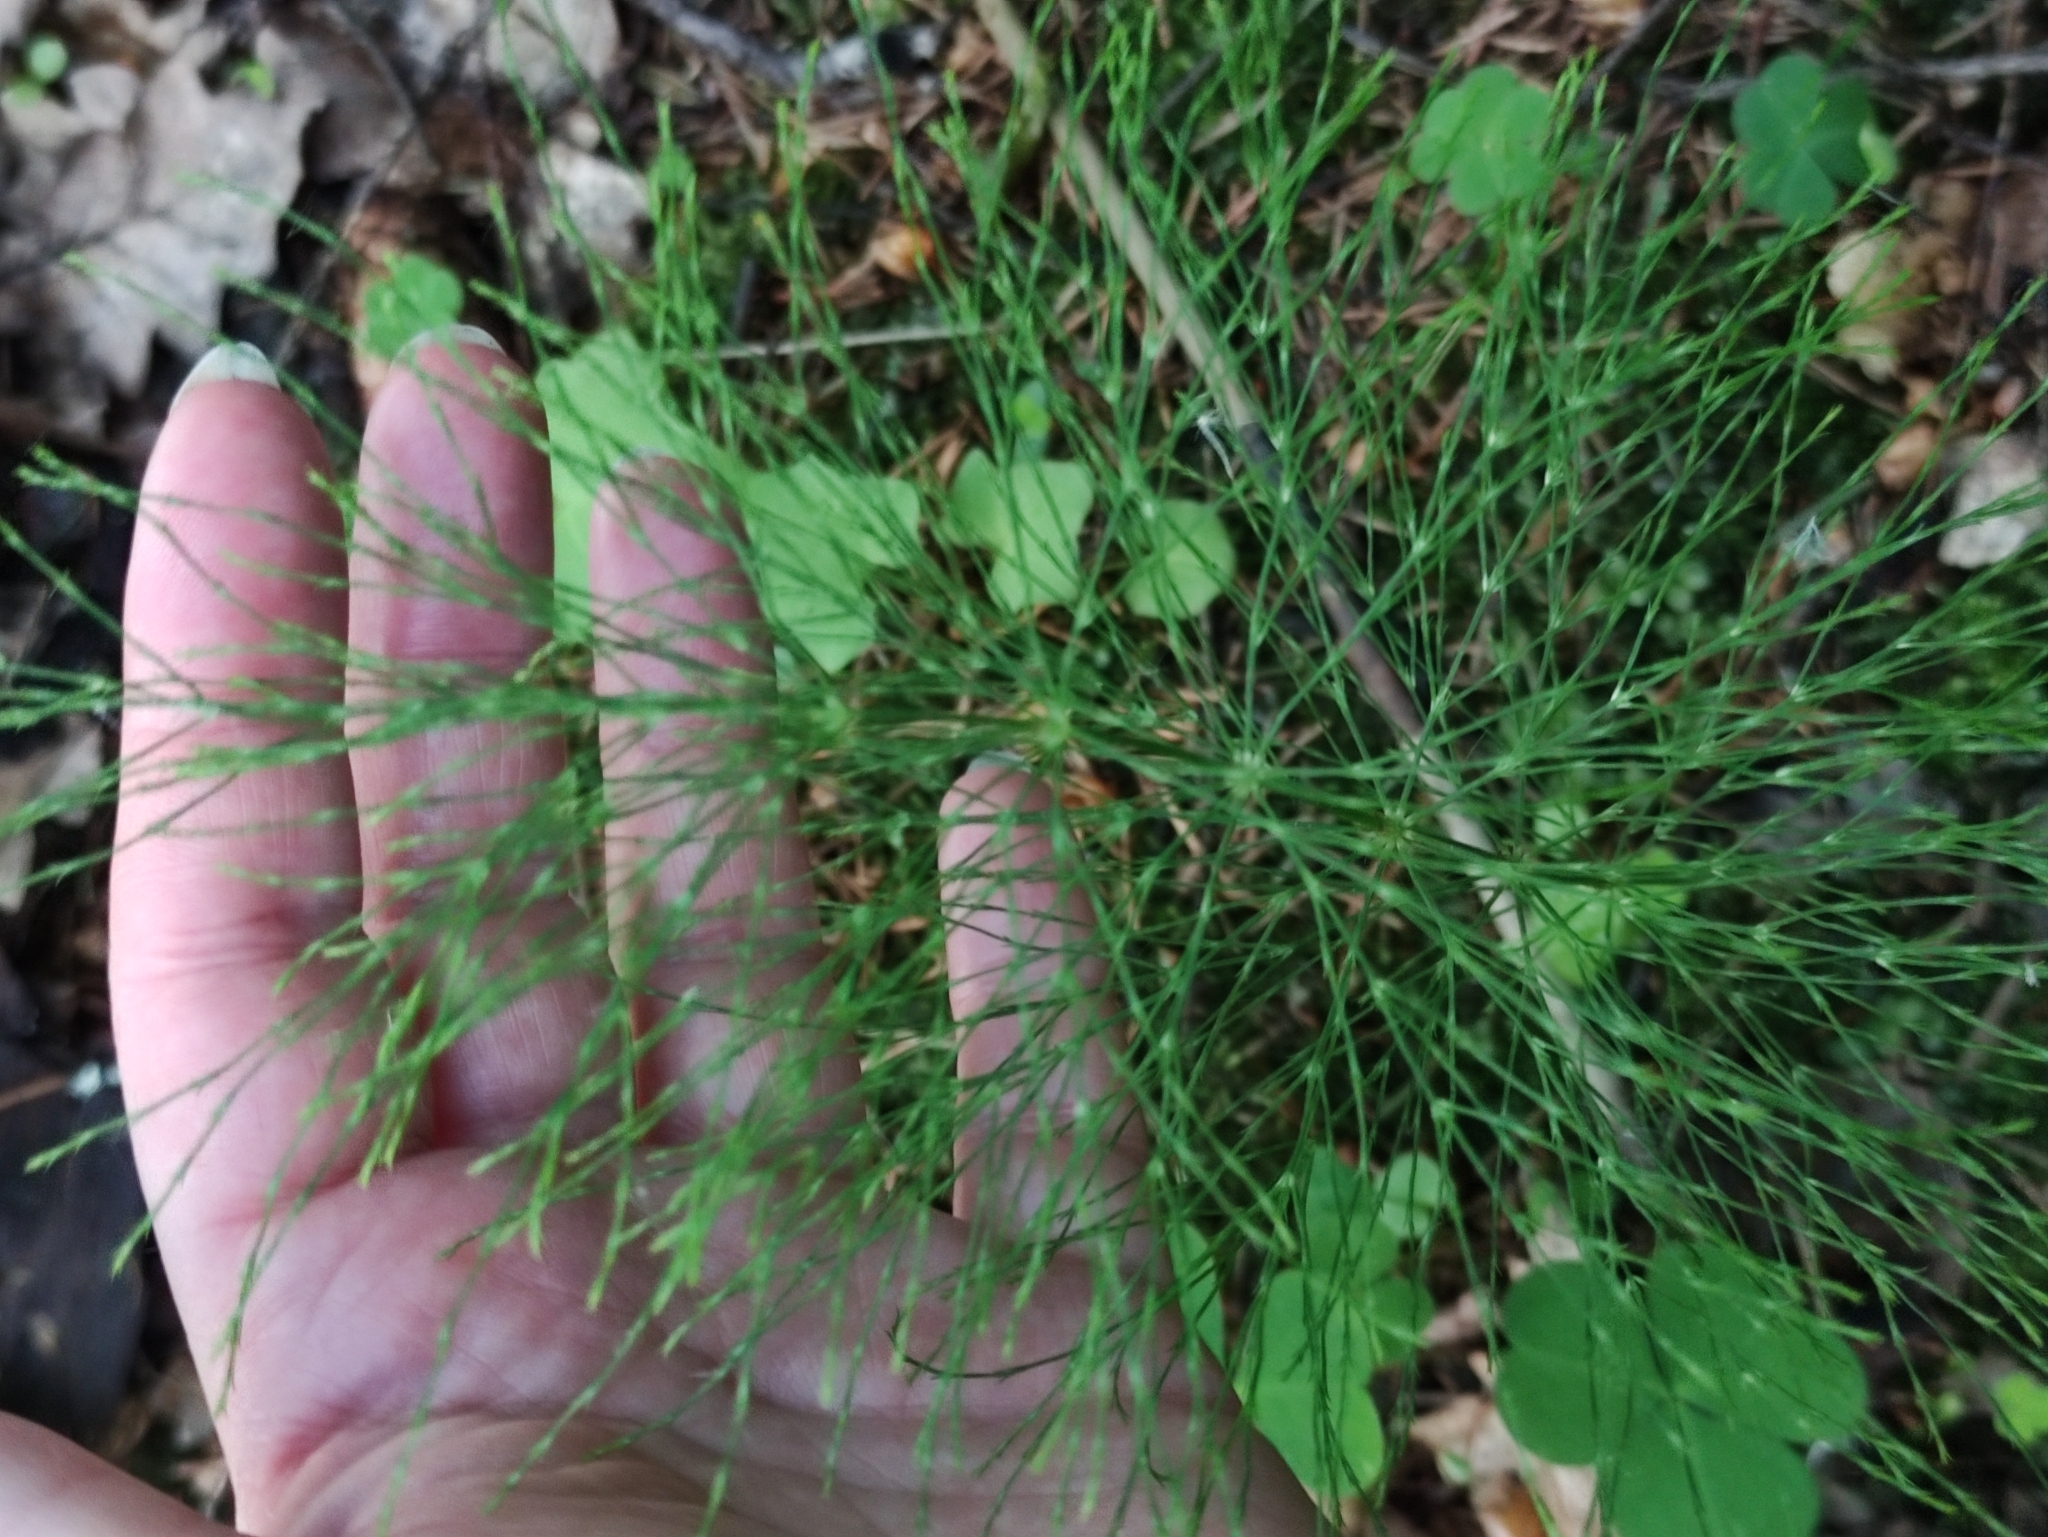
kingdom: Plantae
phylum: Tracheophyta
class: Polypodiopsida
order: Equisetales
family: Equisetaceae
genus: Equisetum
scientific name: Equisetum sylvaticum
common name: Wood horsetail
